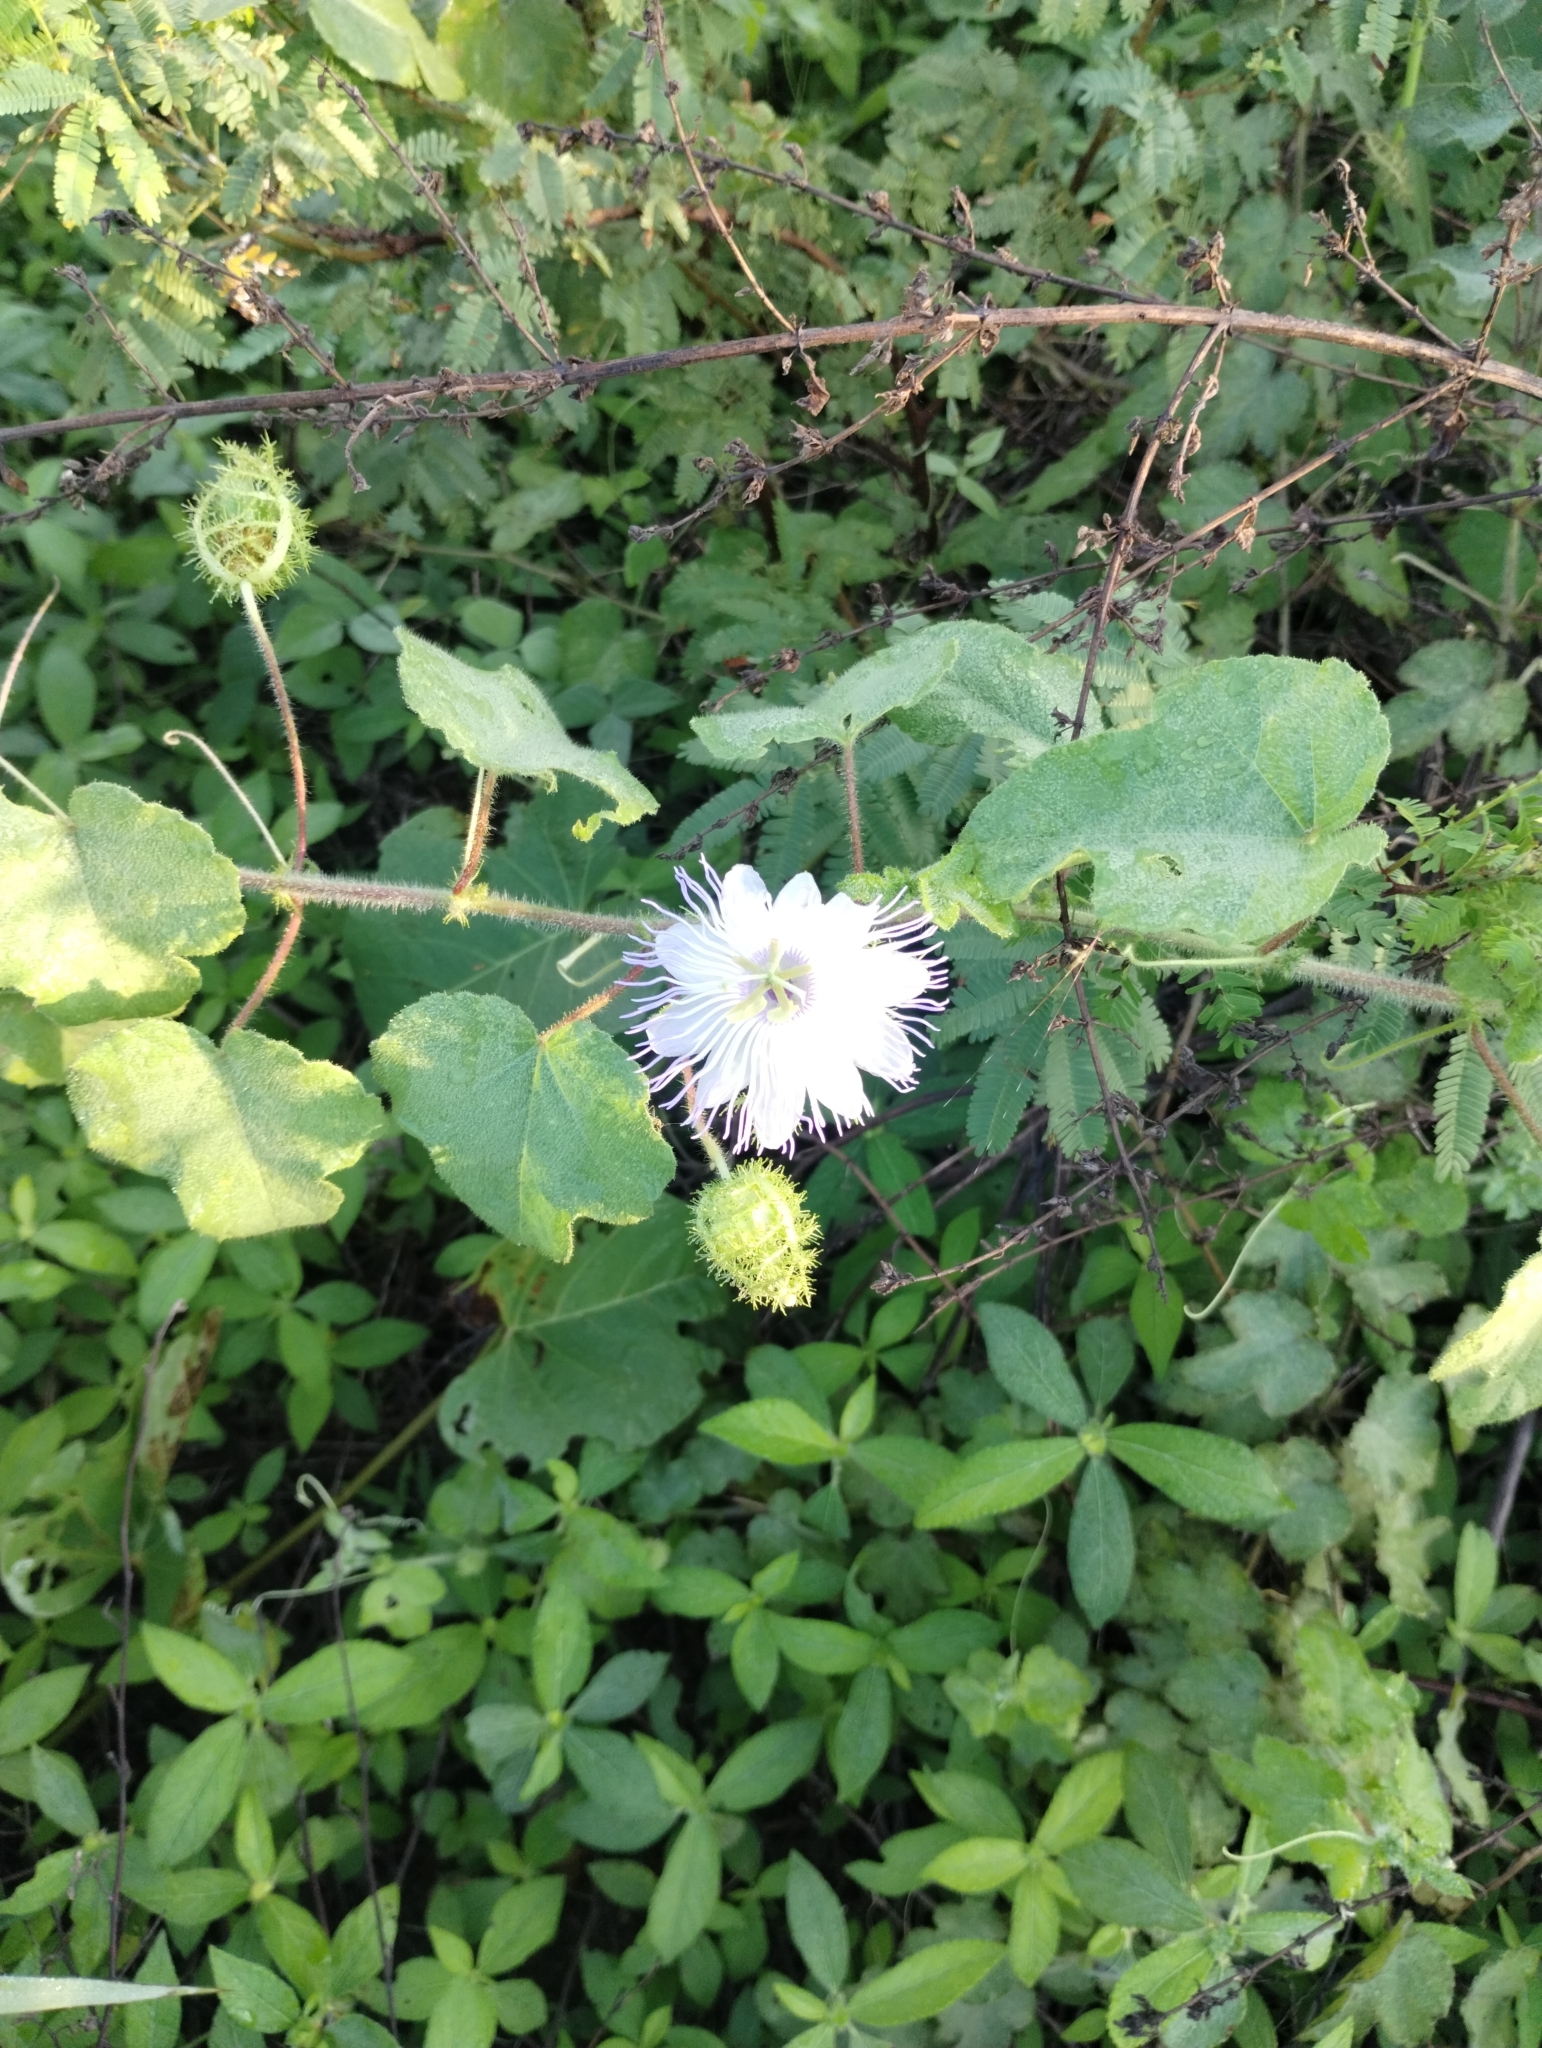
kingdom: Plantae
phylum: Tracheophyta
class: Magnoliopsida
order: Malpighiales
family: Passifloraceae
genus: Passiflora
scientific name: Passiflora foetida
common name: Fetid passionflower
